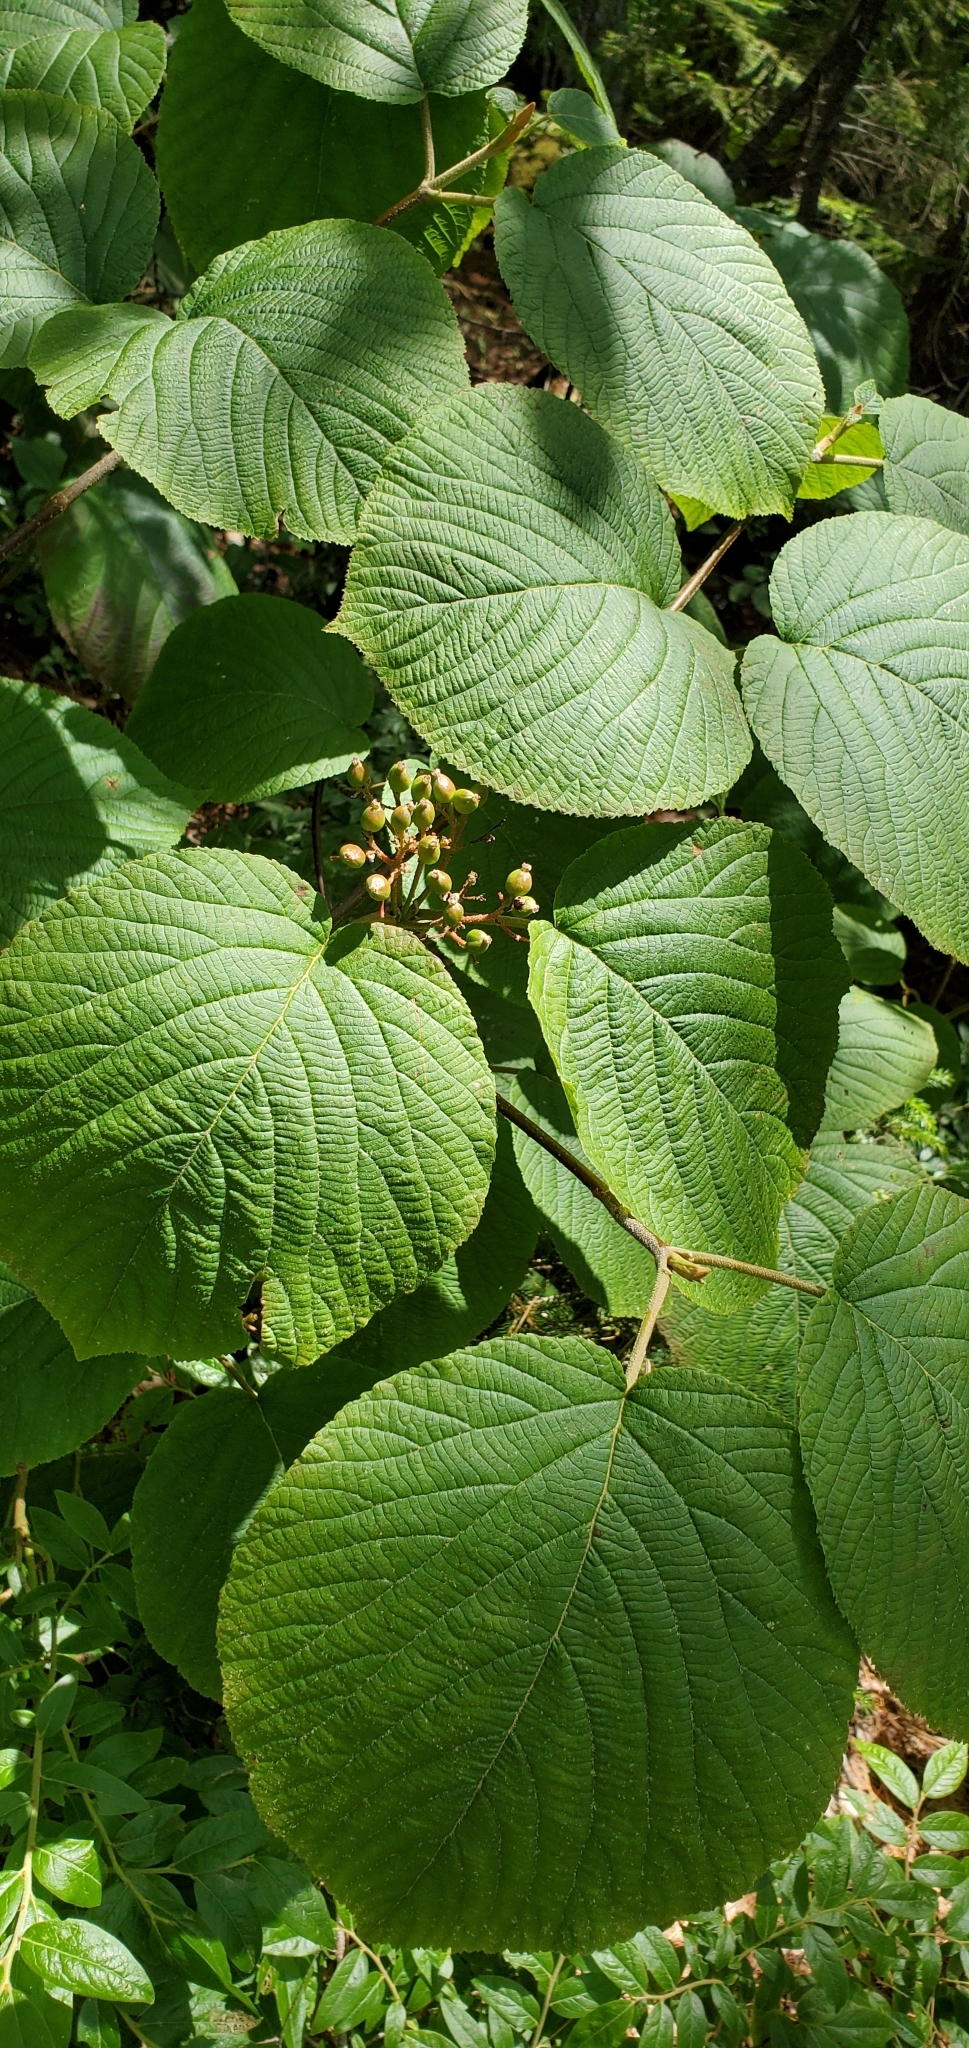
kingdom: Plantae
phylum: Tracheophyta
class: Magnoliopsida
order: Dipsacales
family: Viburnaceae
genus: Viburnum
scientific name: Viburnum lantanoides
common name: Hobblebush
